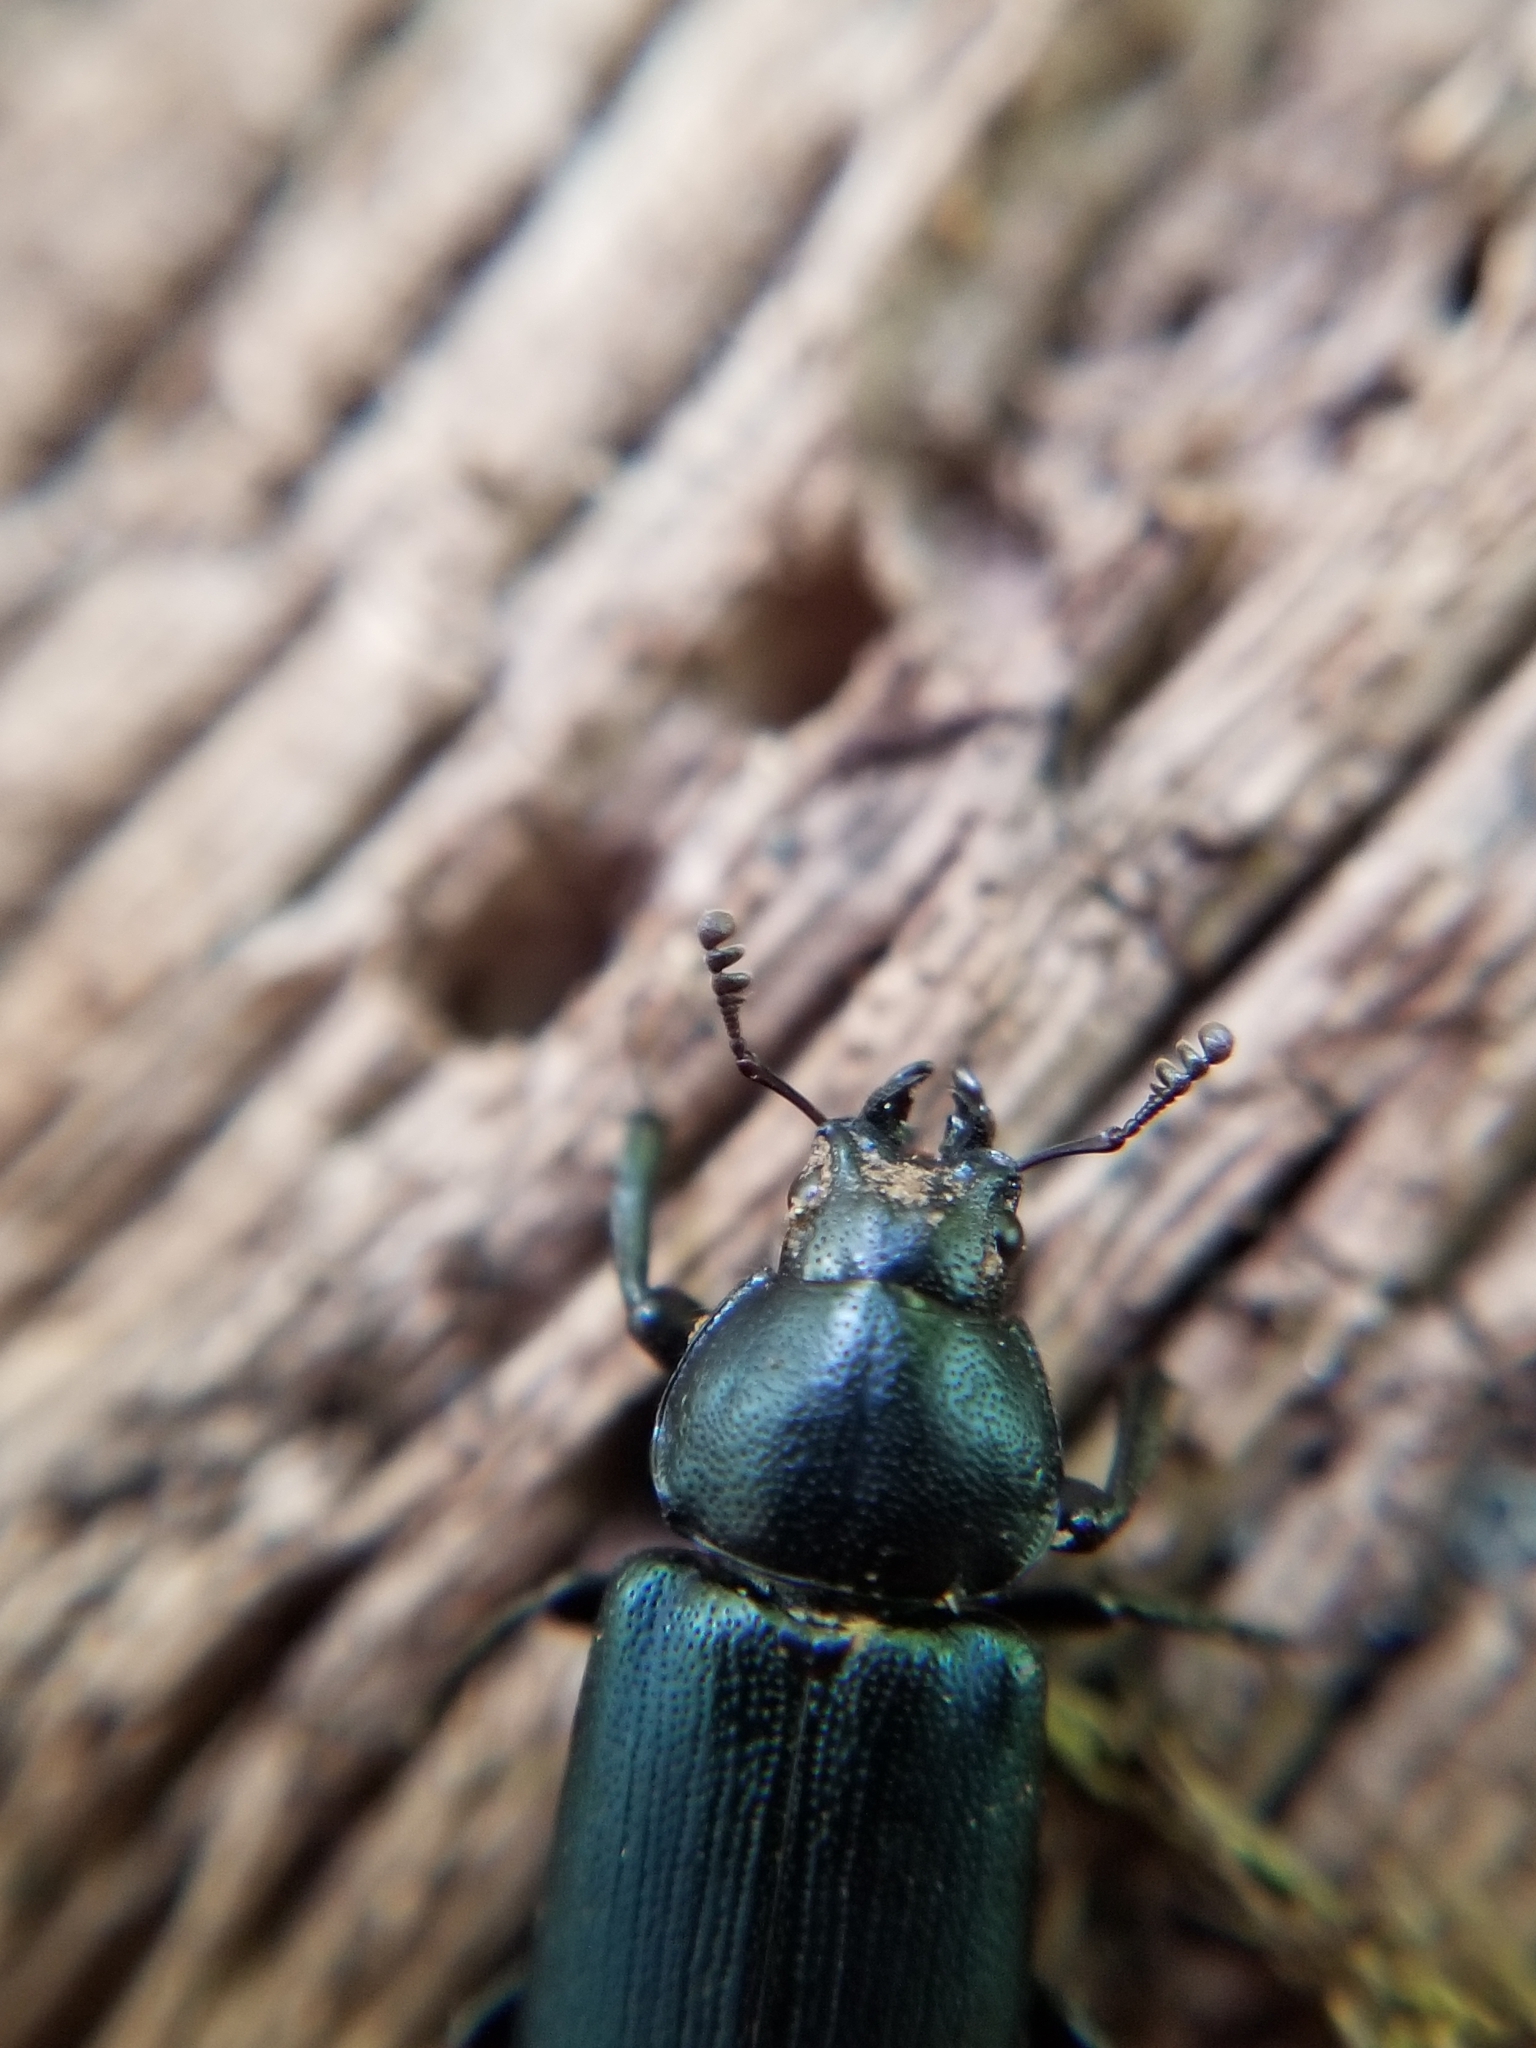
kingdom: Animalia
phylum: Arthropoda
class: Insecta
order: Coleoptera
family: Lucanidae
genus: Platycerus
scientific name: Platycerus oregonensis
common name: Oregon stag beetle
